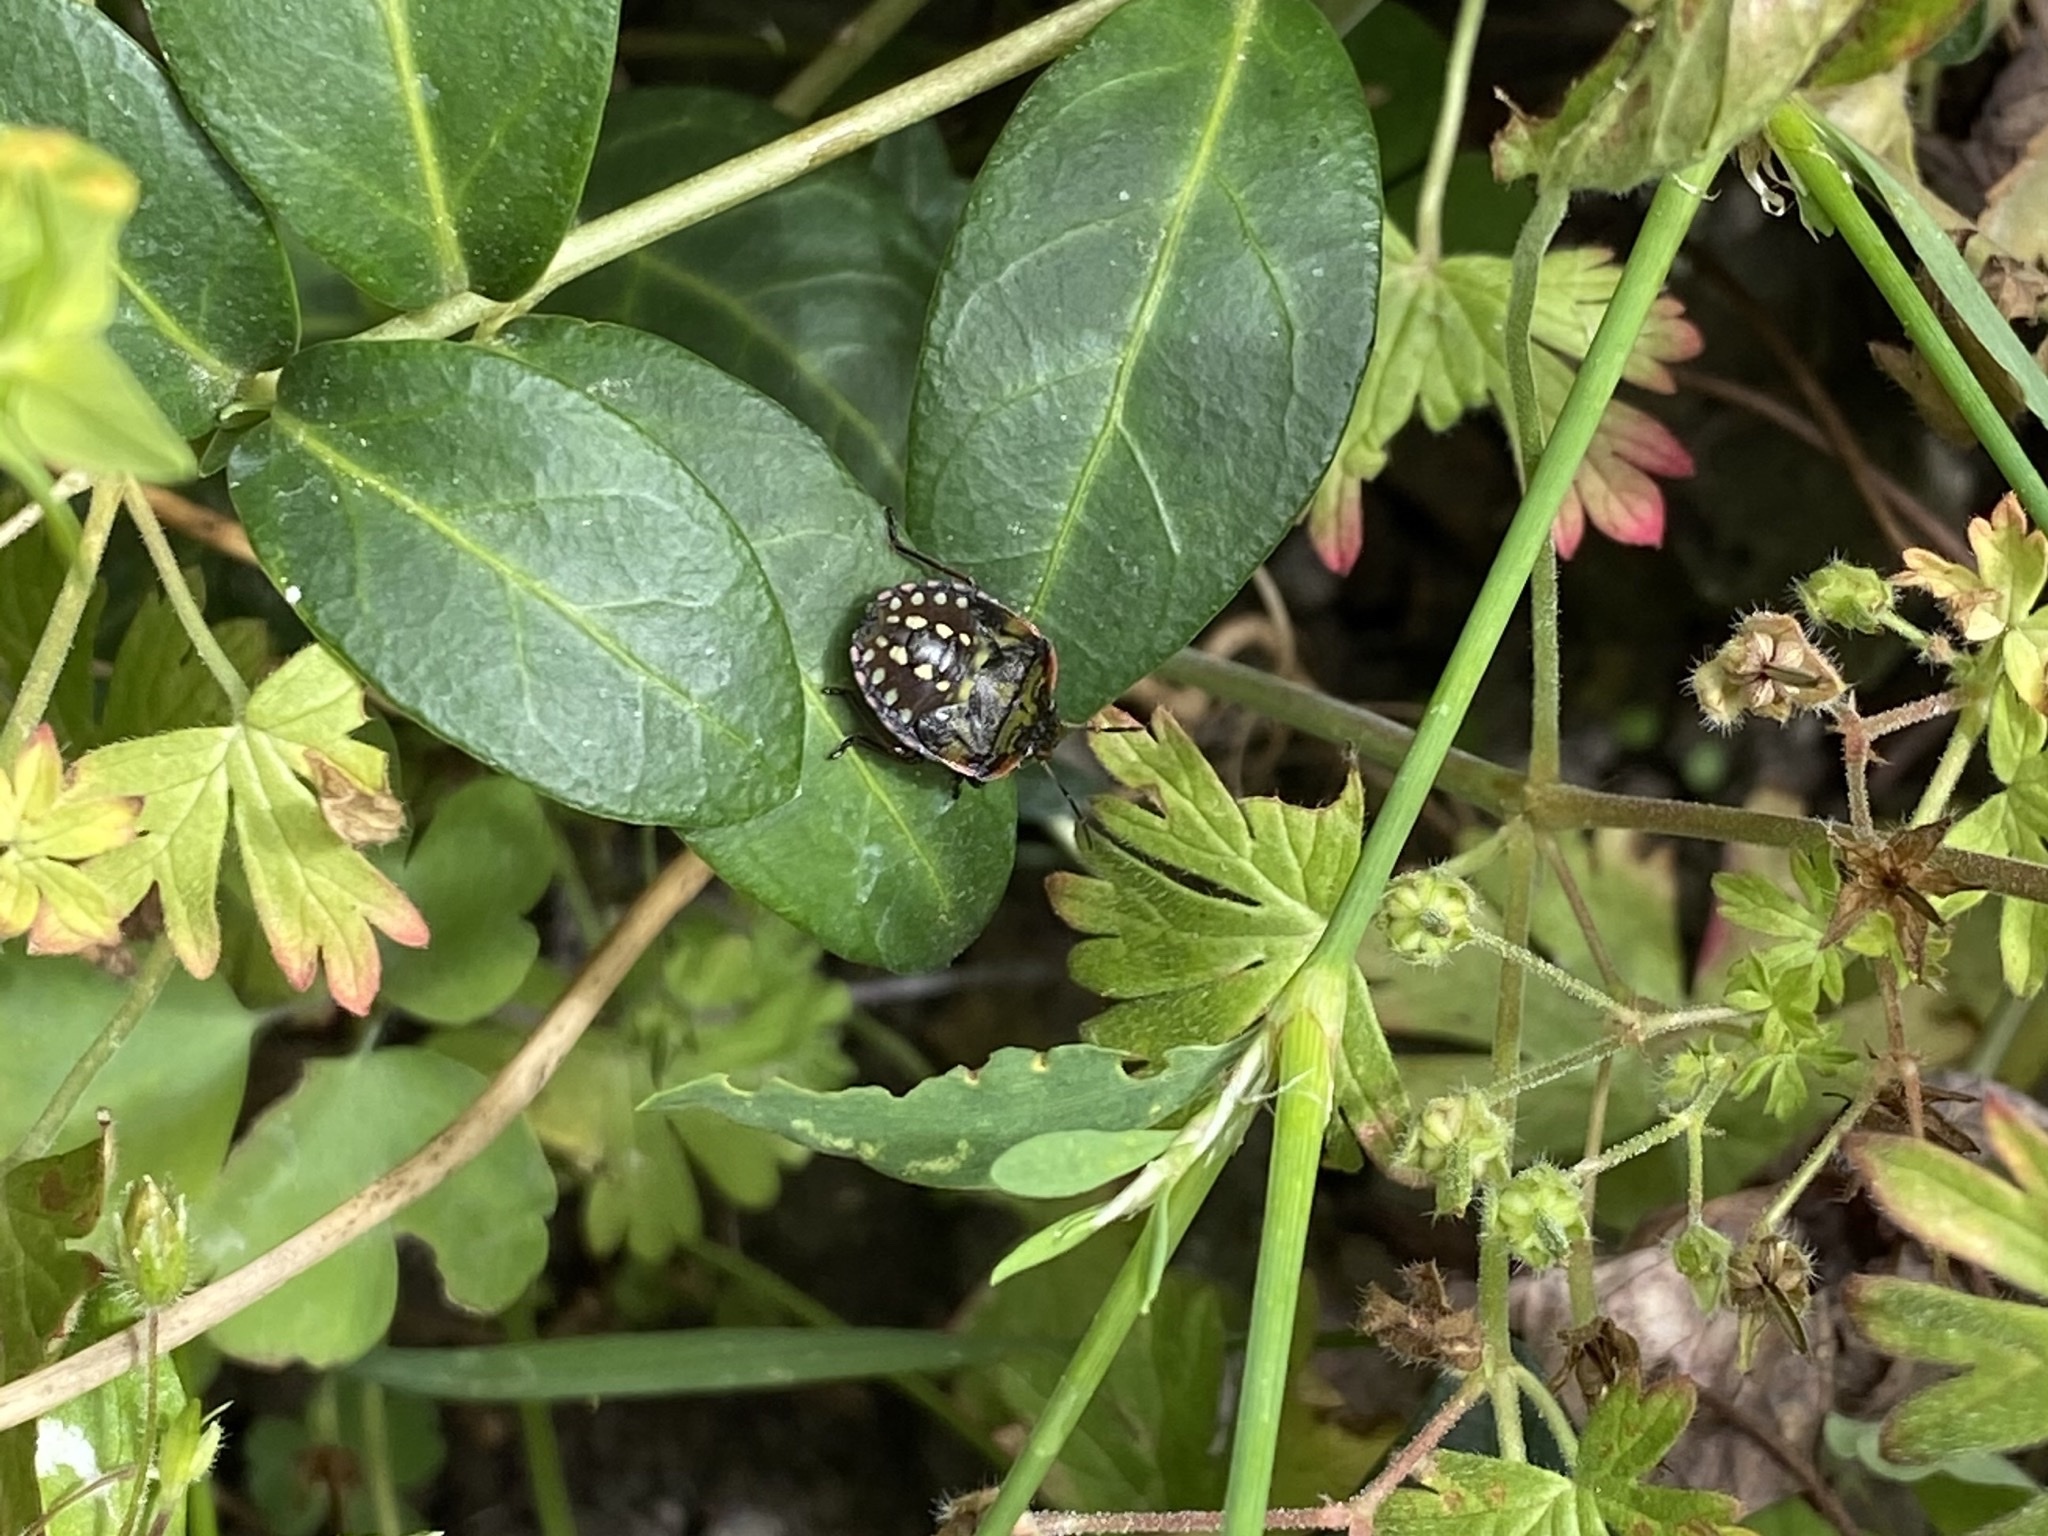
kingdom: Animalia
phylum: Arthropoda
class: Insecta
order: Hemiptera
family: Pentatomidae
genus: Nezara
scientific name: Nezara viridula
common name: Southern green stink bug
